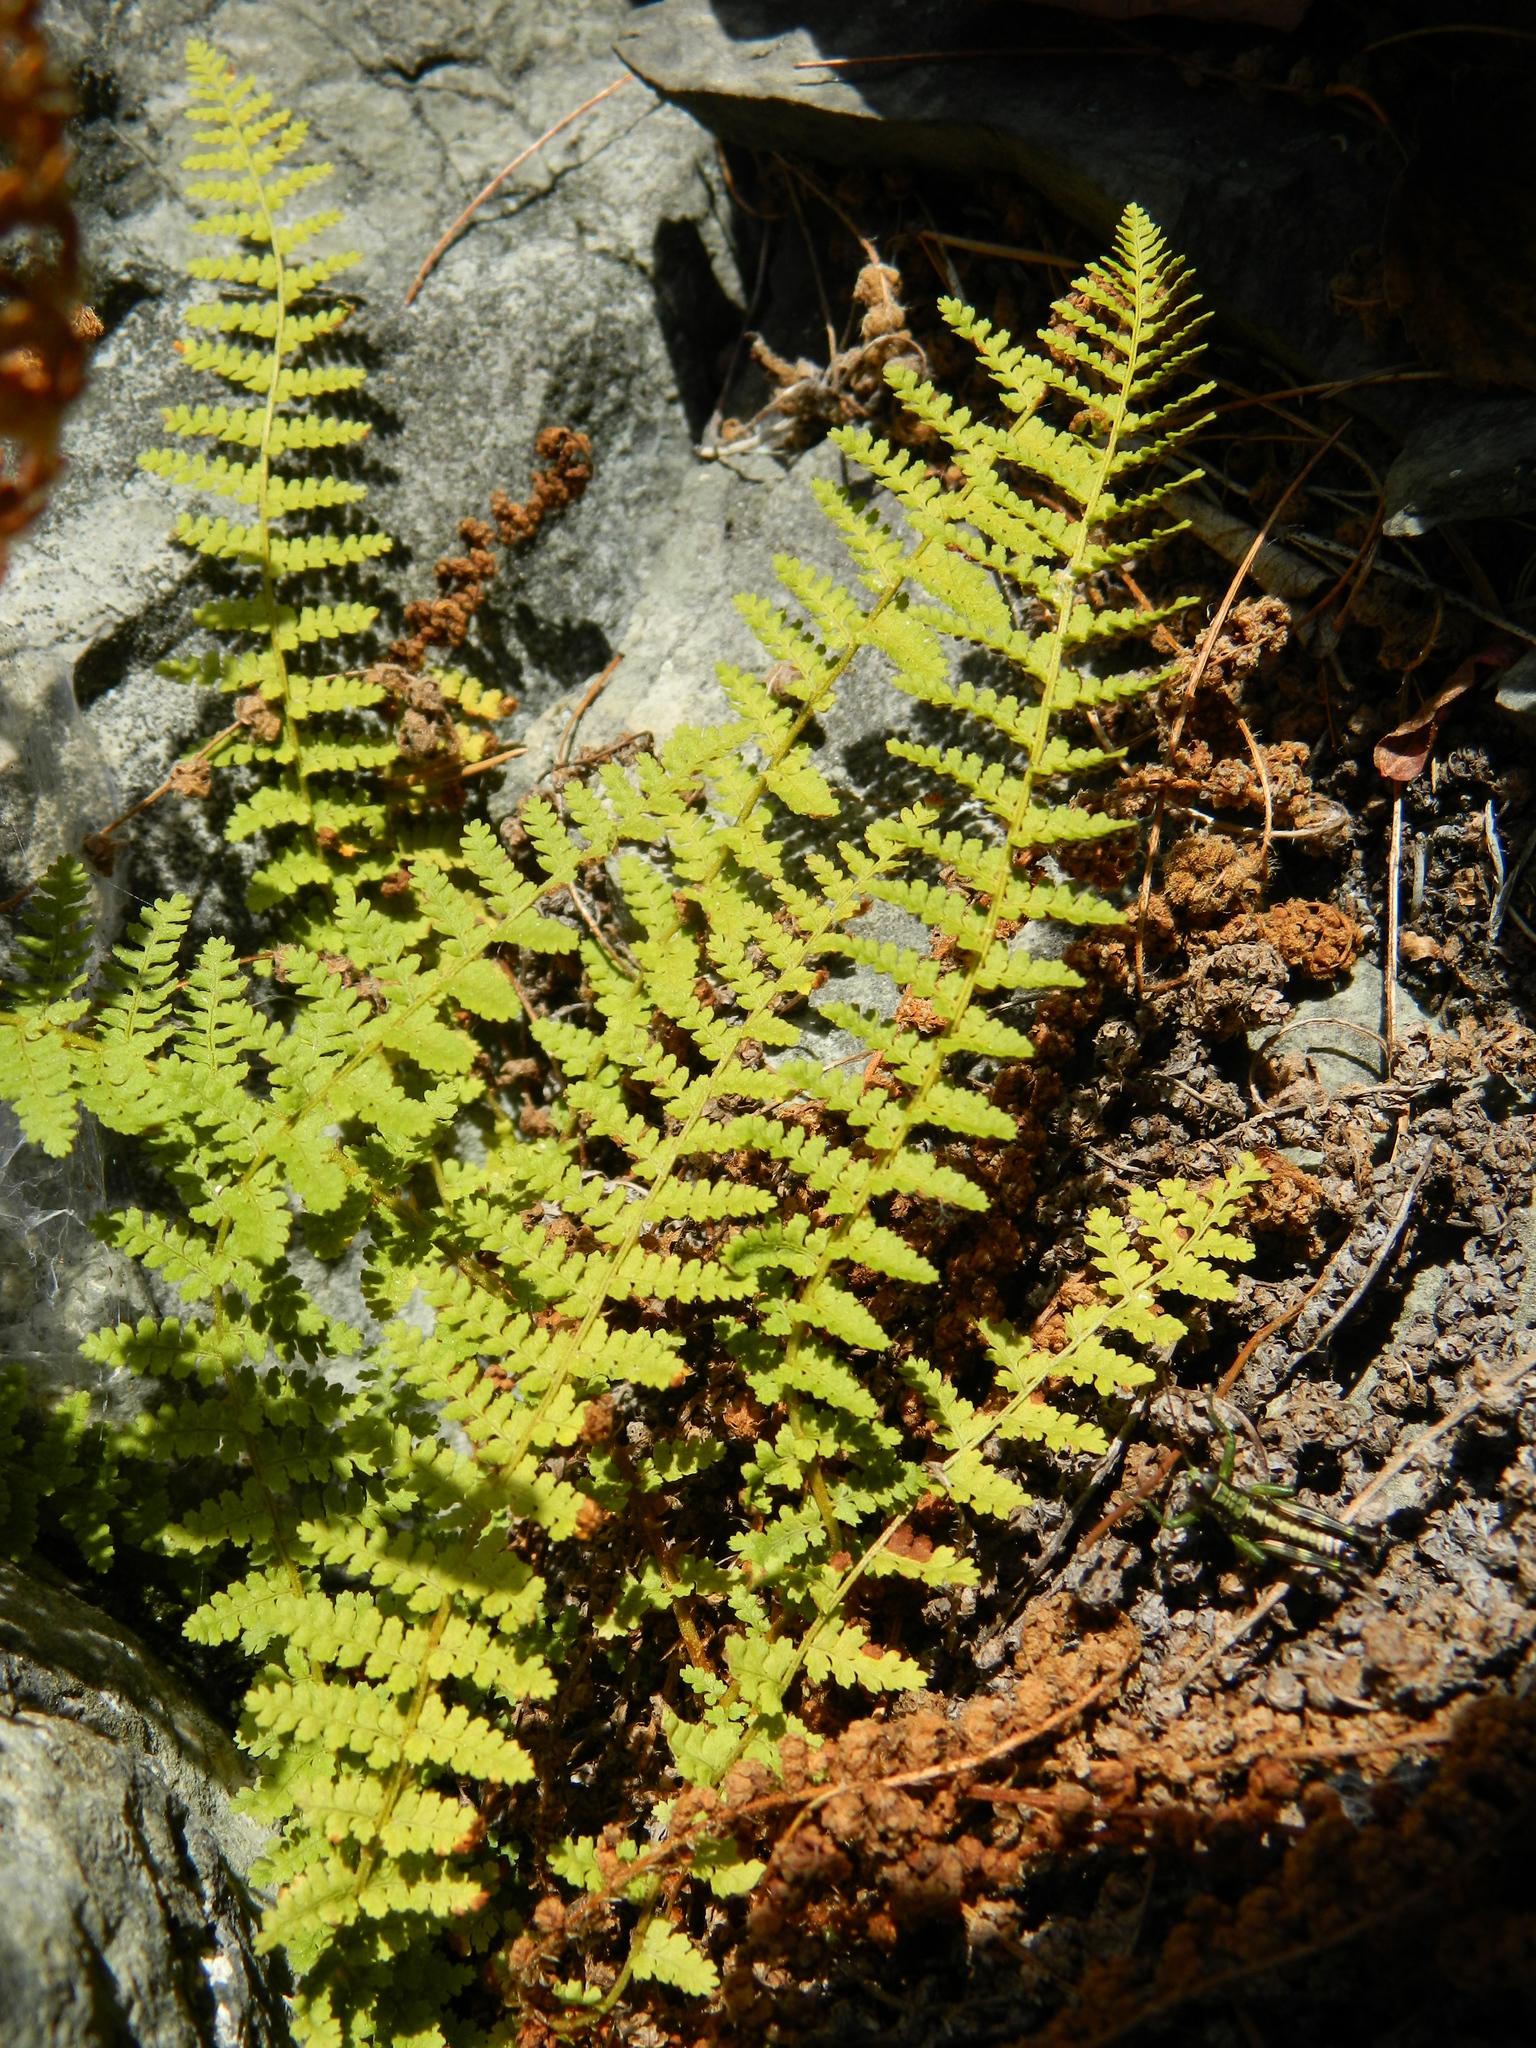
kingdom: Plantae
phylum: Tracheophyta
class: Polypodiopsida
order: Polypodiales
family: Dryopteridaceae
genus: Dryopteris
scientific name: Dryopteris fragrans
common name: Fragrant wood fern
